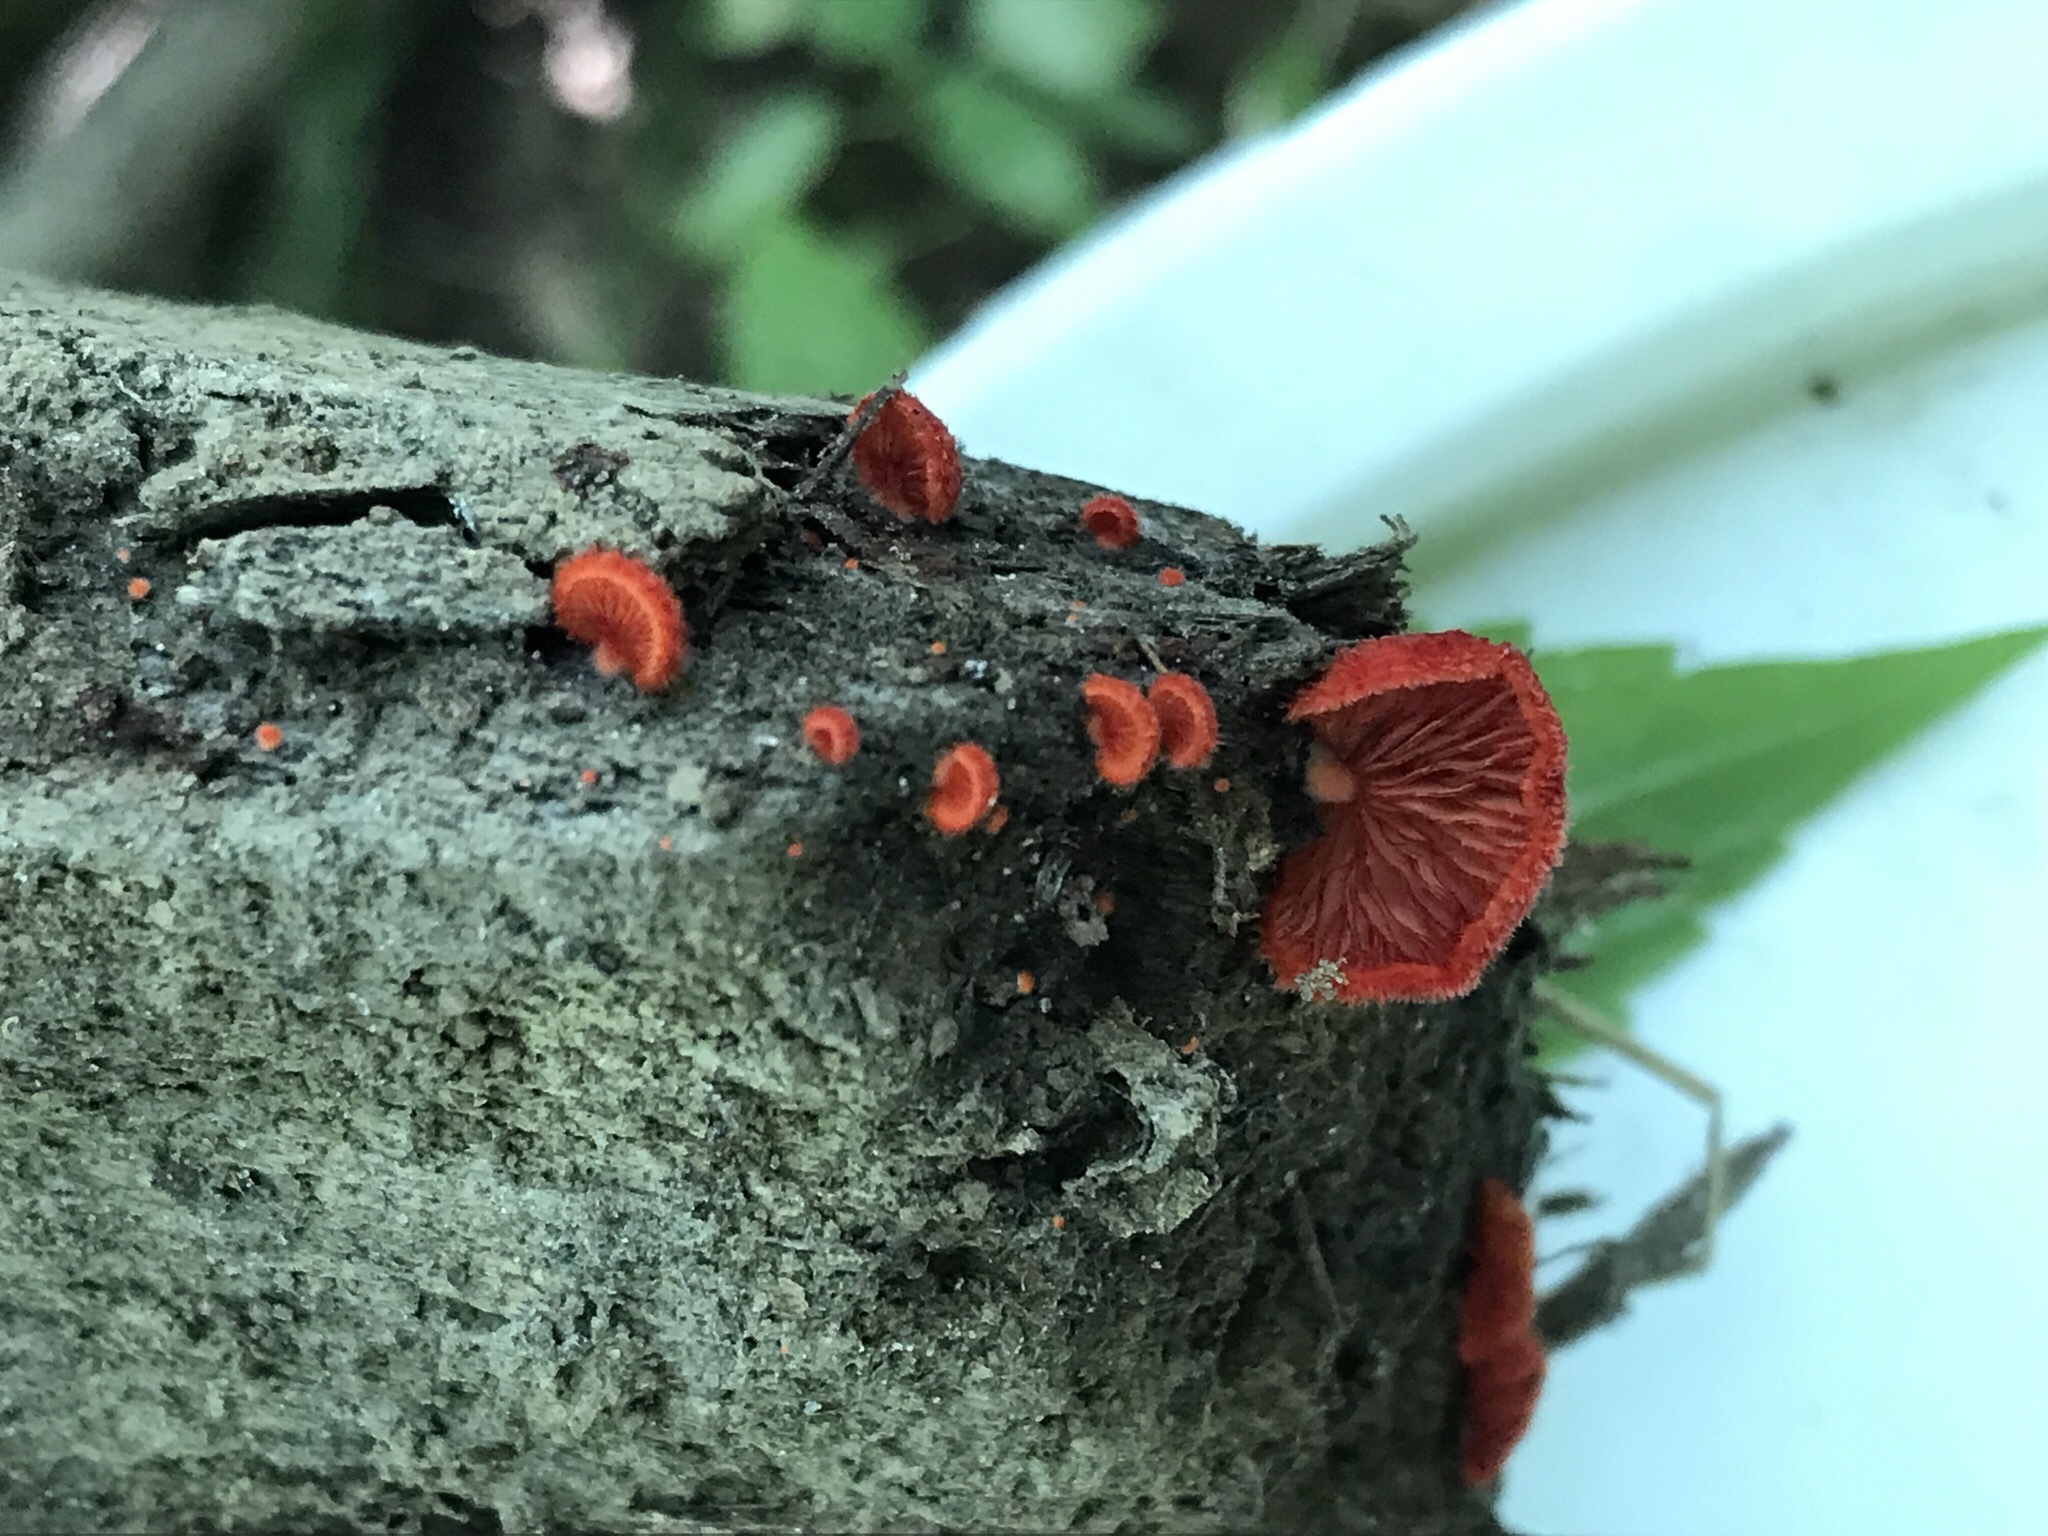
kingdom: Fungi
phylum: Basidiomycota
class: Agaricomycetes
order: Agaricales
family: Crepidotaceae
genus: Crepidotus
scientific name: Crepidotus cinnabarinus
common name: Cinnabar oysterling
